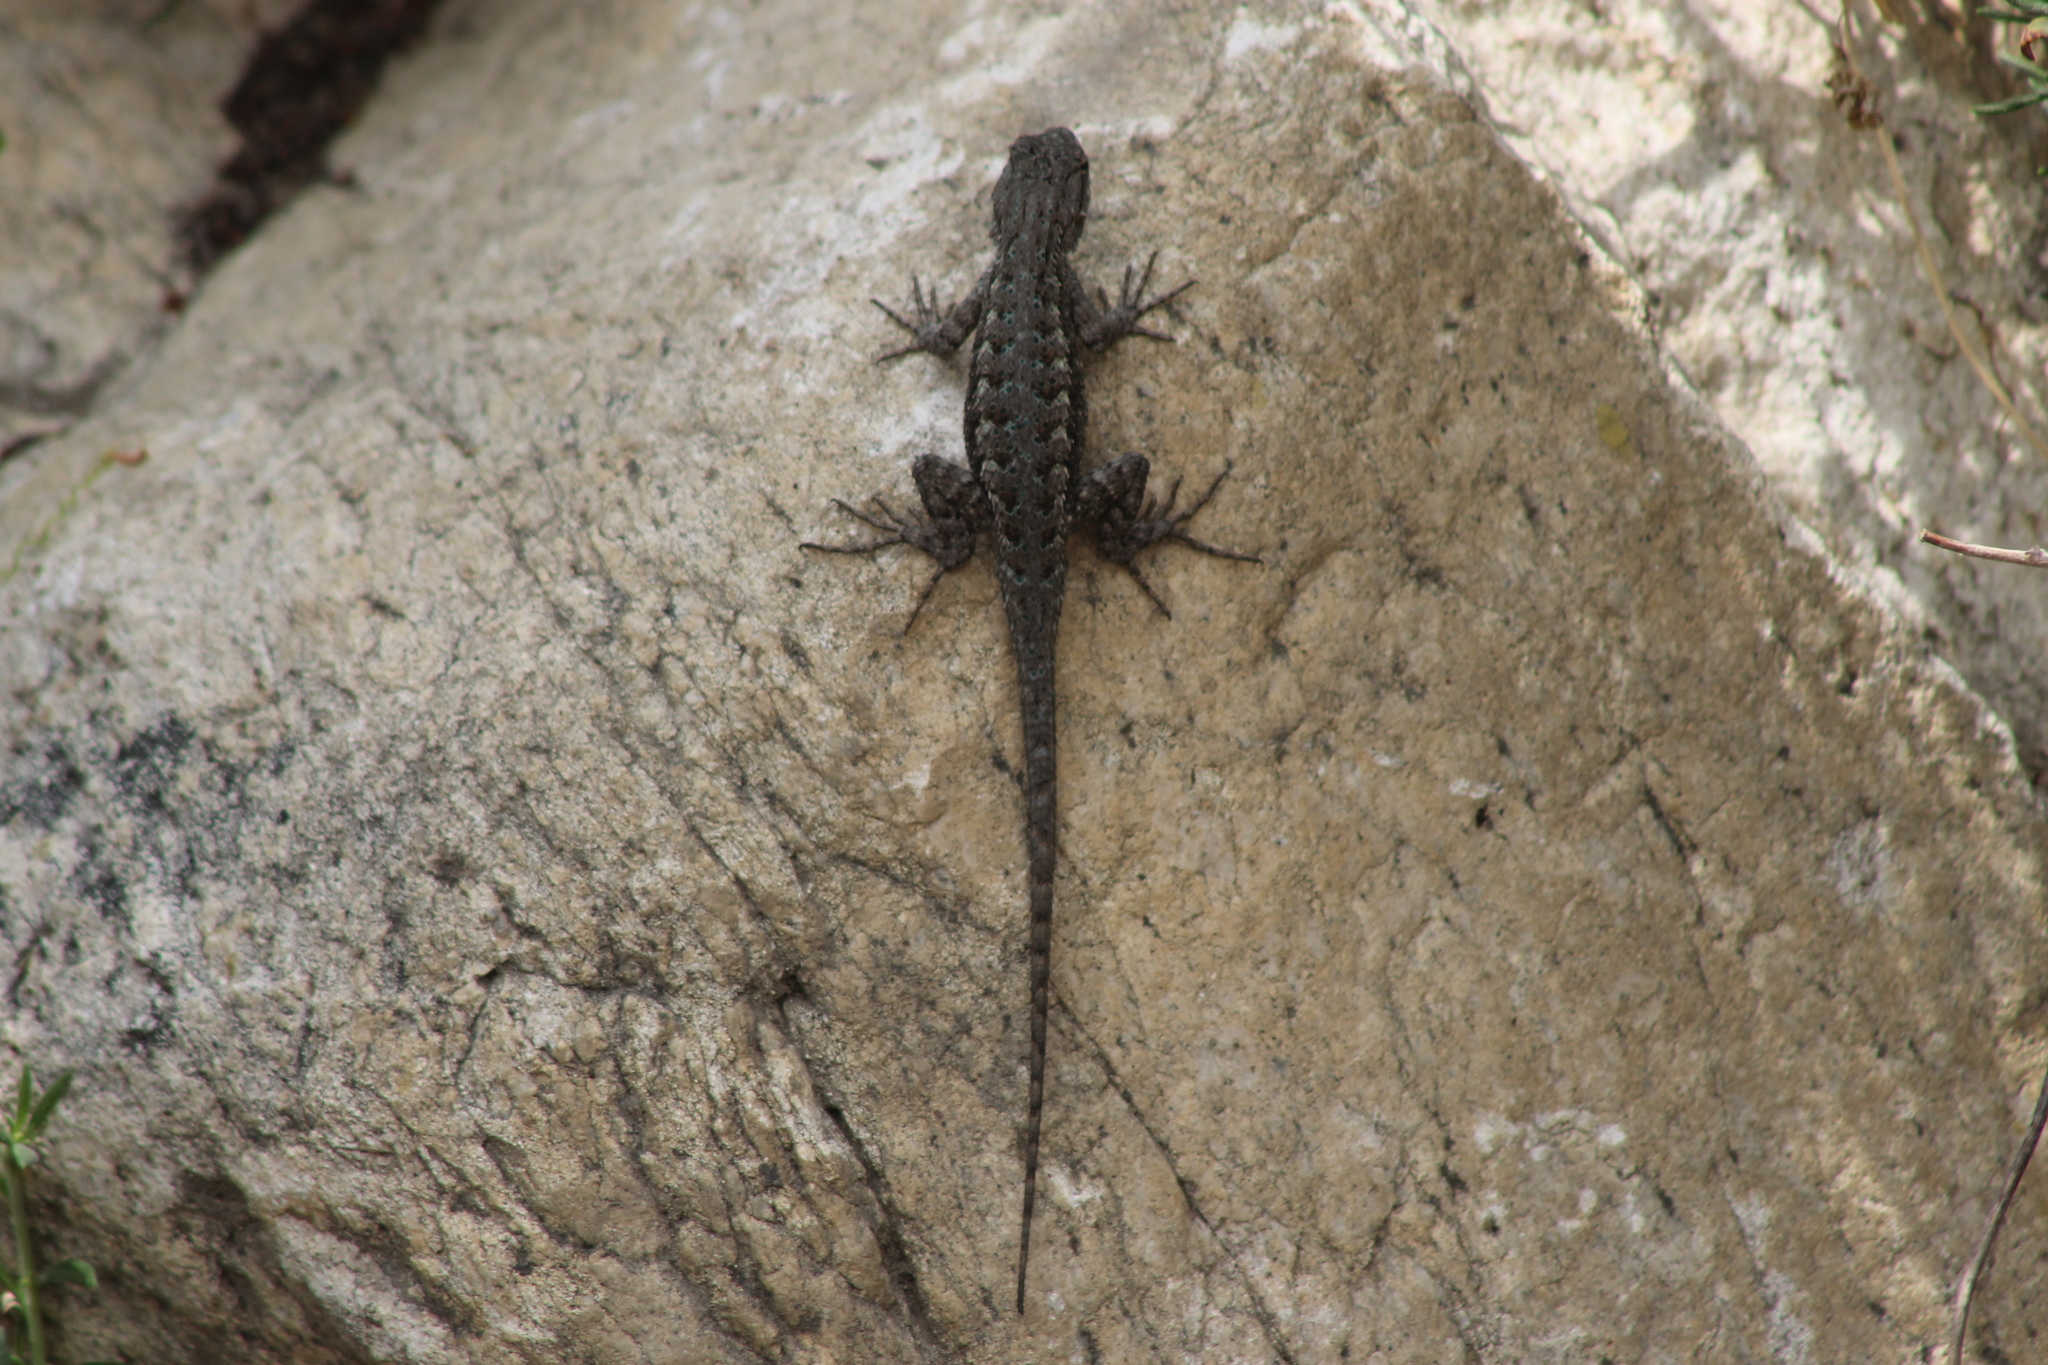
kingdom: Animalia
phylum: Chordata
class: Squamata
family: Phrynosomatidae
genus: Sceloporus
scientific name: Sceloporus occidentalis
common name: Western fence lizard
